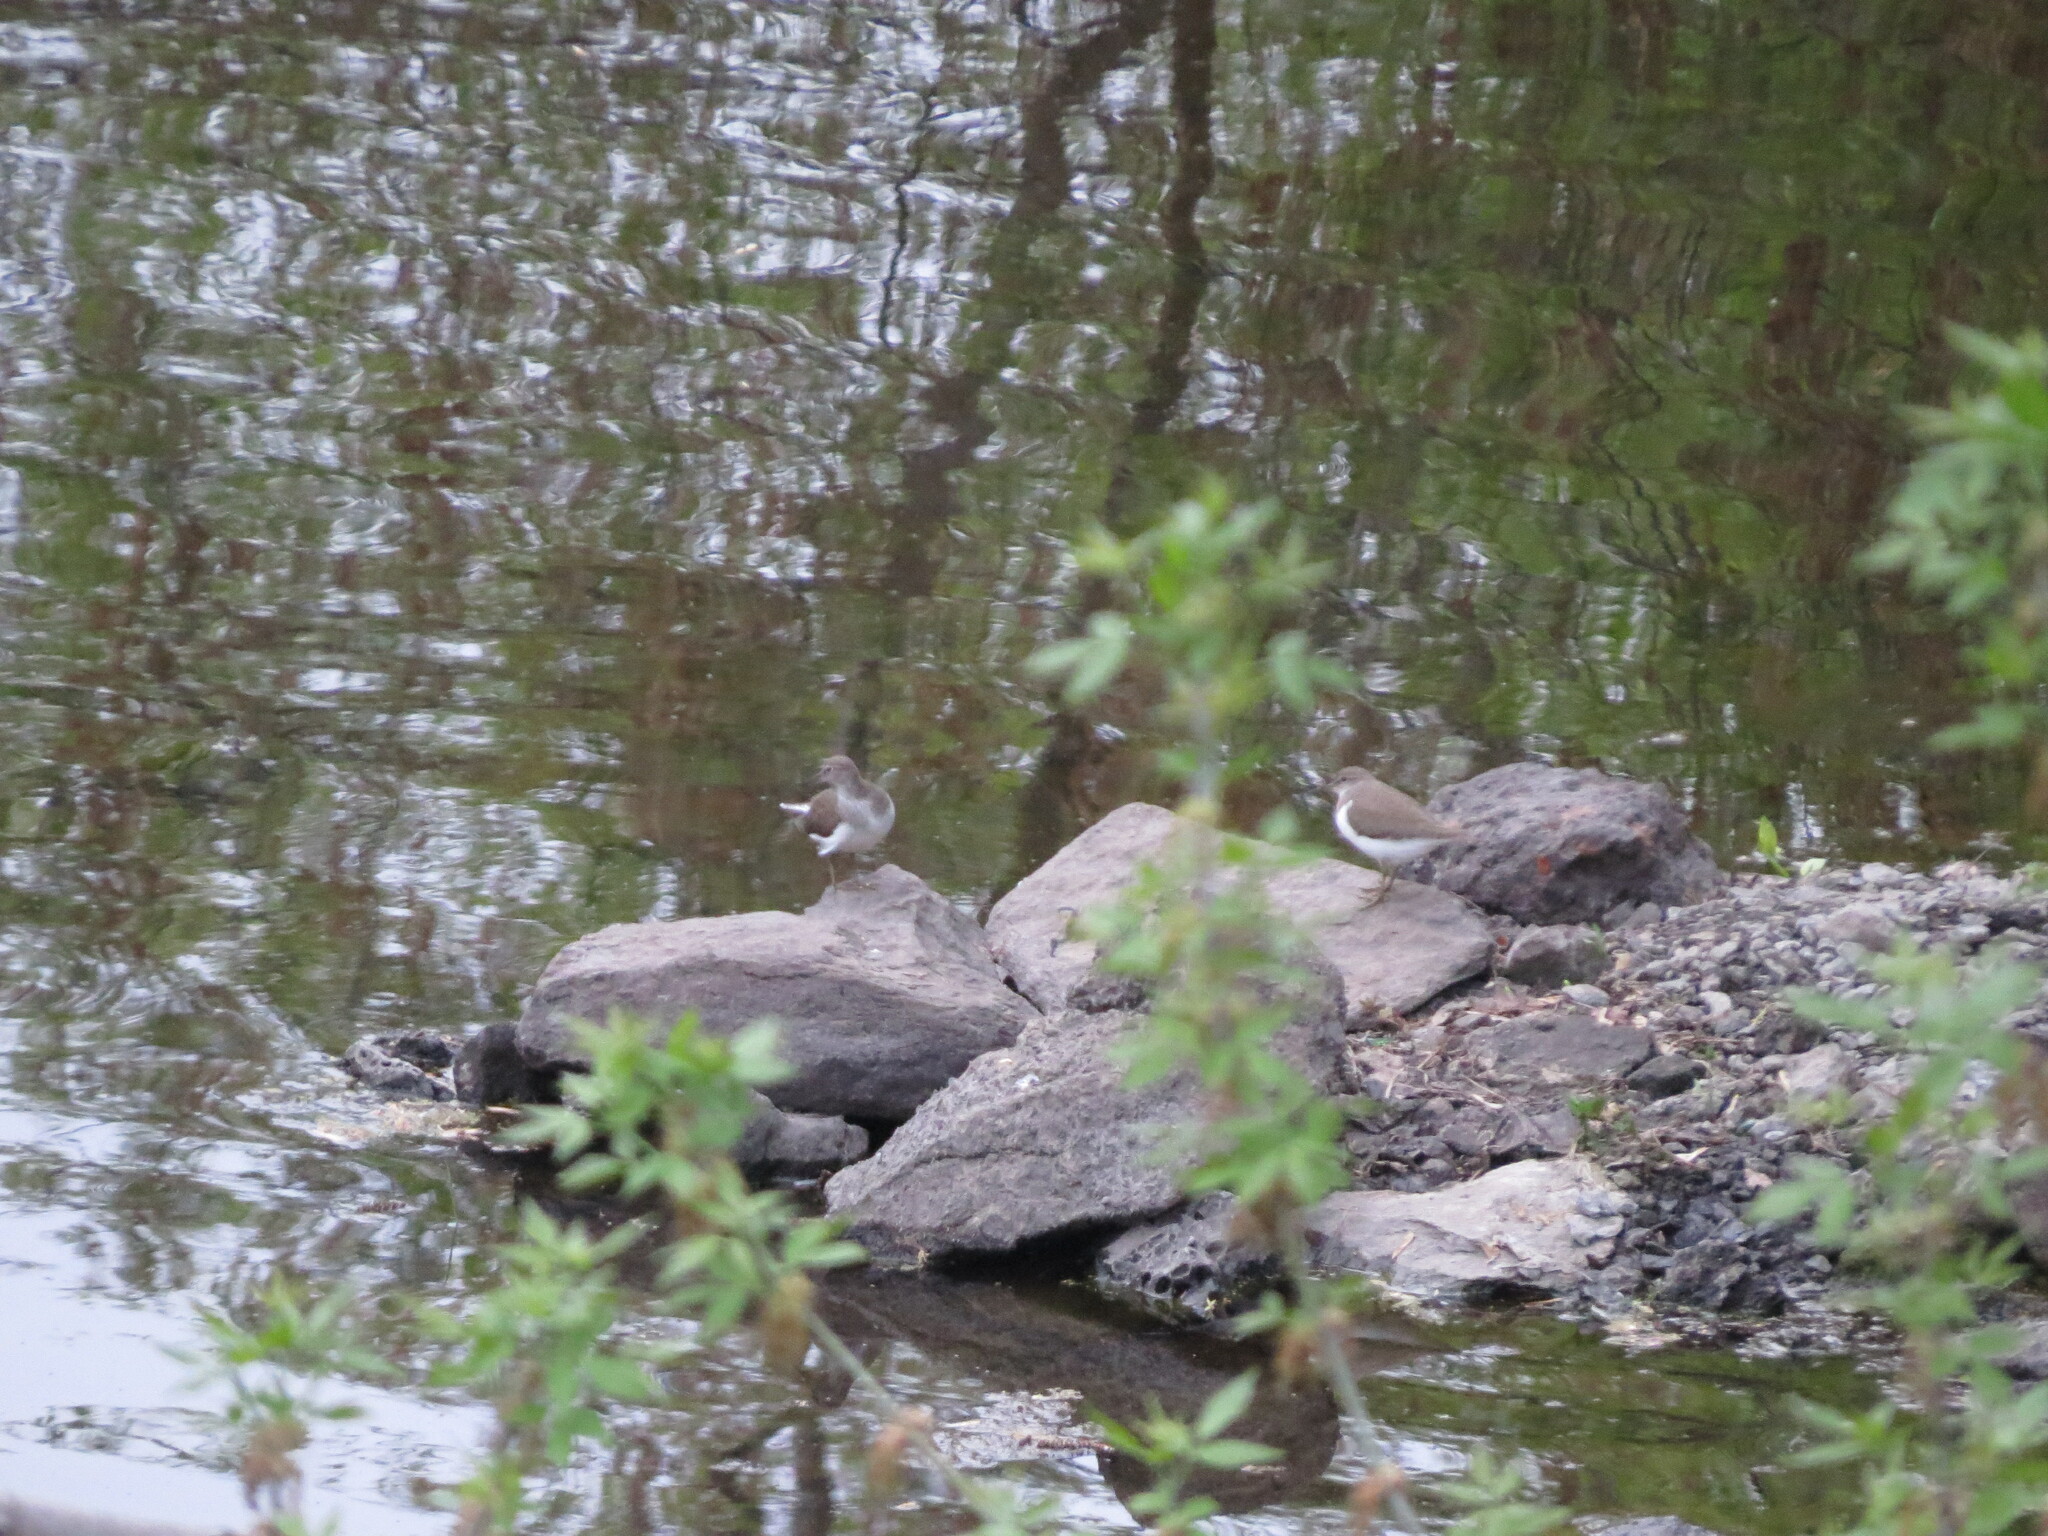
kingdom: Animalia
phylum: Chordata
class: Aves
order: Charadriiformes
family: Scolopacidae
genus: Actitis
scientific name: Actitis hypoleucos
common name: Common sandpiper
